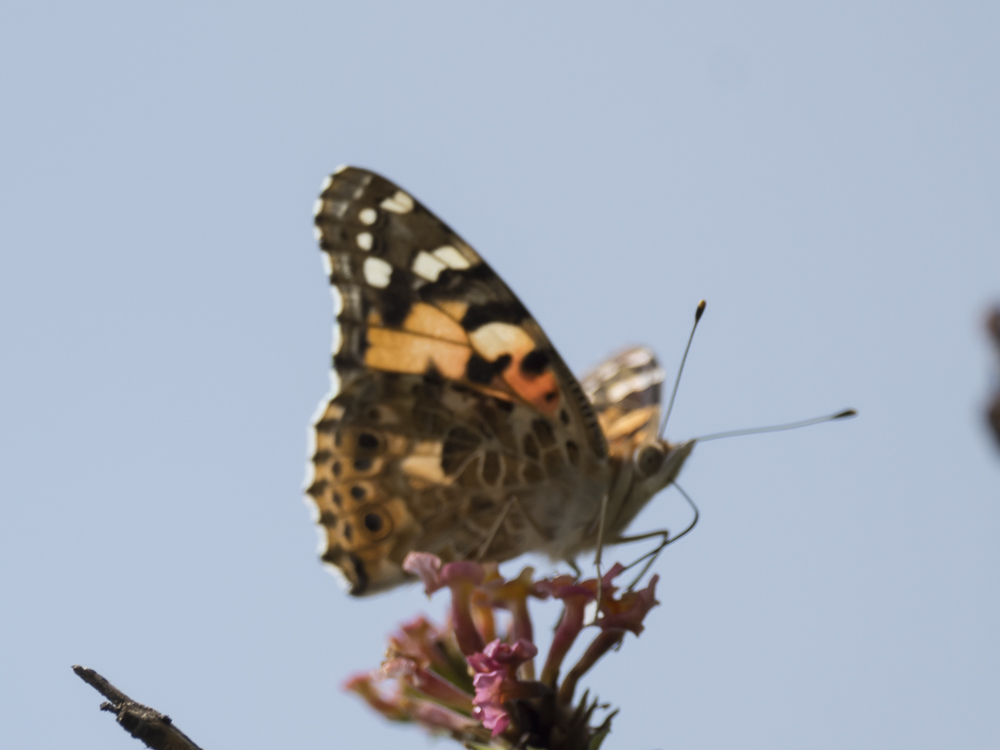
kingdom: Animalia
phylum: Arthropoda
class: Insecta
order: Lepidoptera
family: Nymphalidae
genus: Vanessa
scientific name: Vanessa cardui
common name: Painted lady
